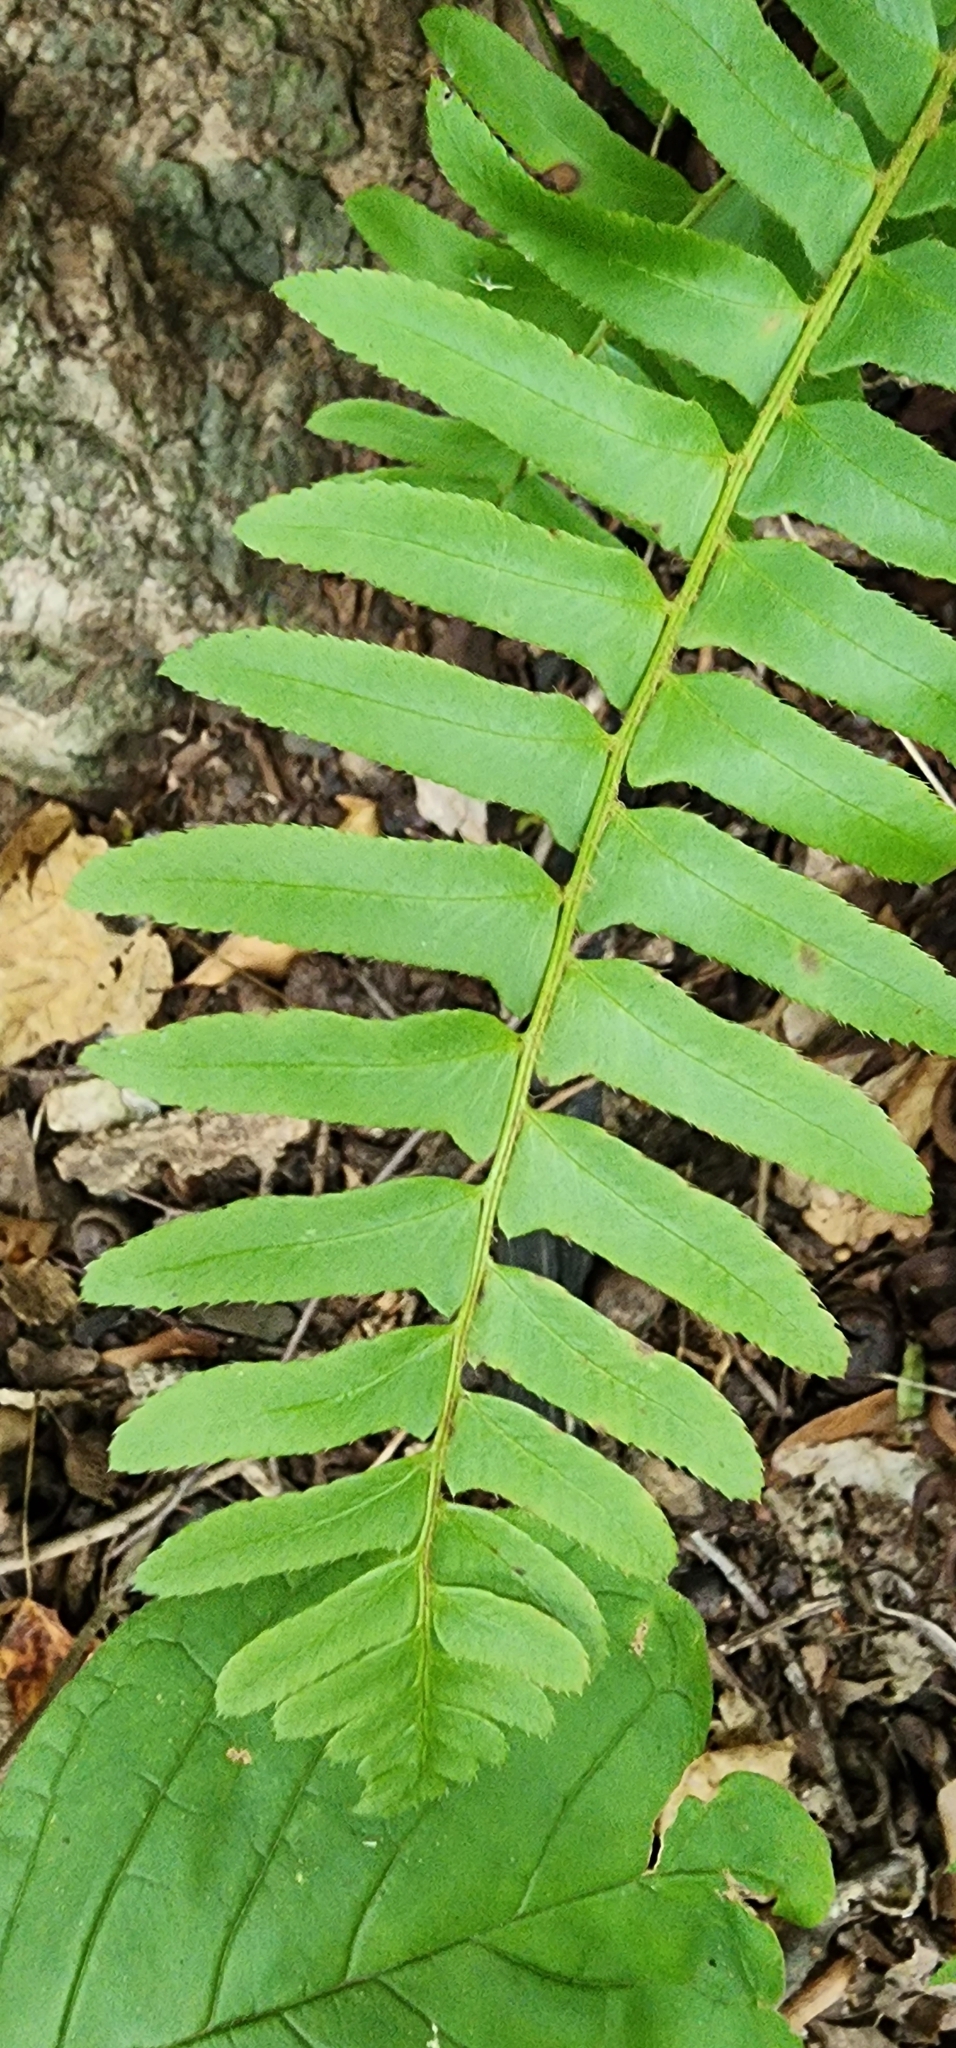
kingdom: Plantae
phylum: Tracheophyta
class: Polypodiopsida
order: Polypodiales
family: Dryopteridaceae
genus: Polystichum
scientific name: Polystichum acrostichoides
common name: Christmas fern
